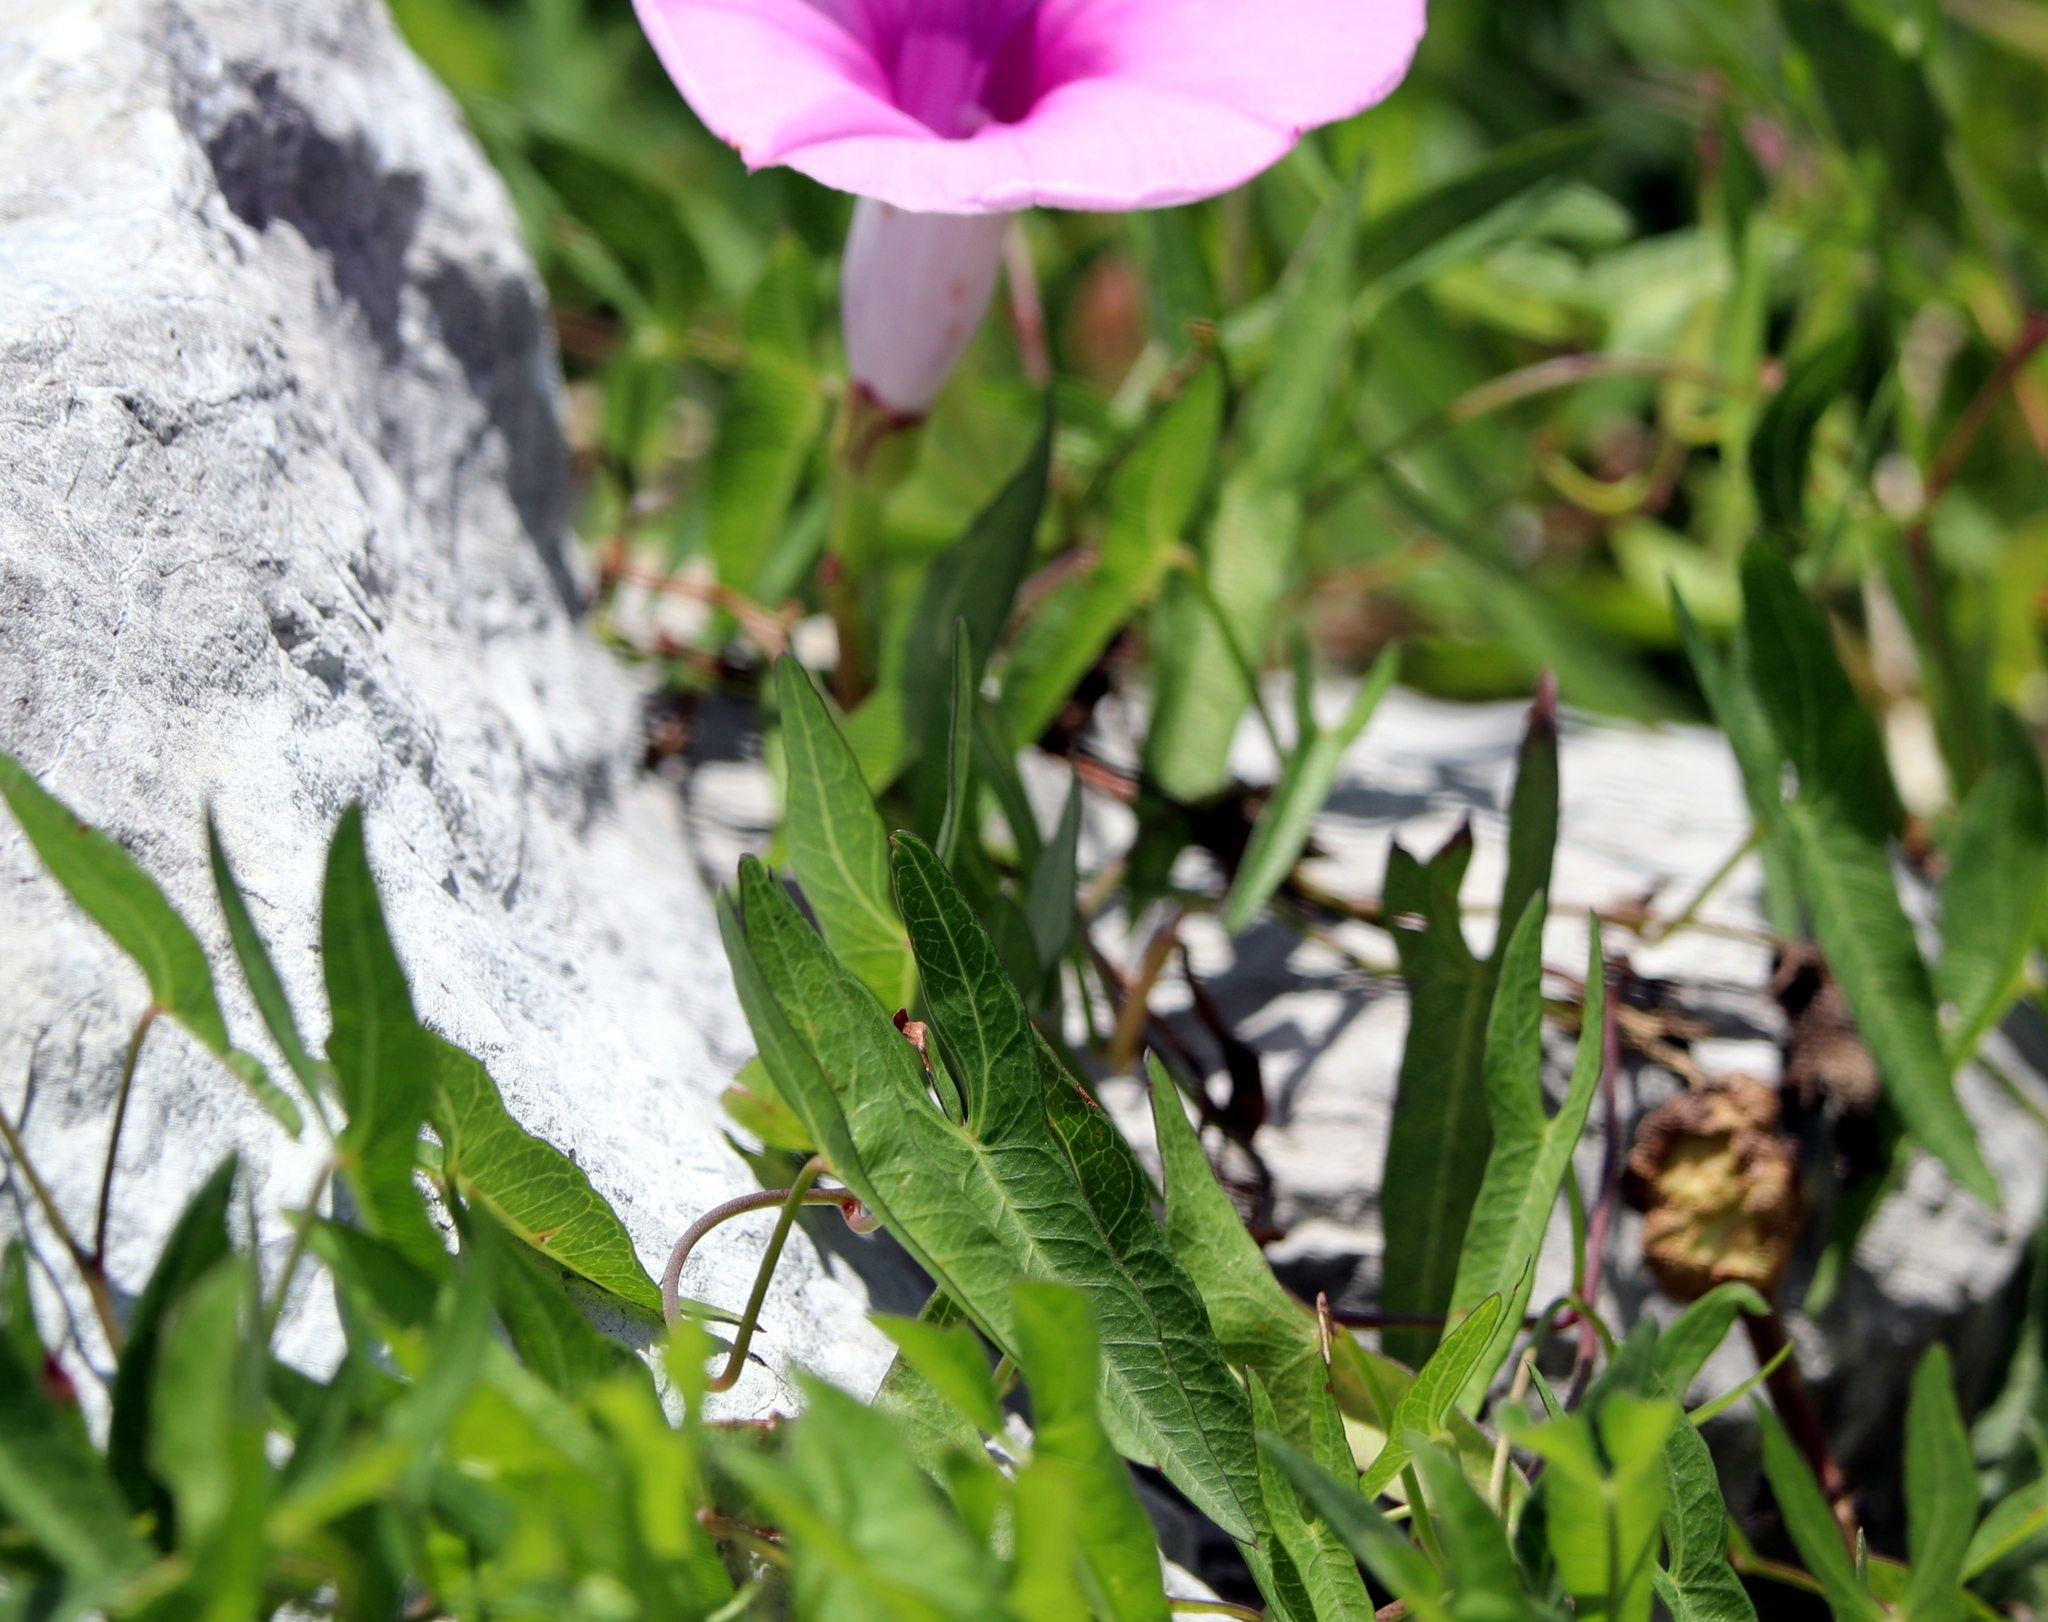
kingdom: Plantae
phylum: Tracheophyta
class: Magnoliopsida
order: Solanales
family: Convolvulaceae
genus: Ipomoea
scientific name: Ipomoea sagittata
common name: Saltmarsh morning glory
